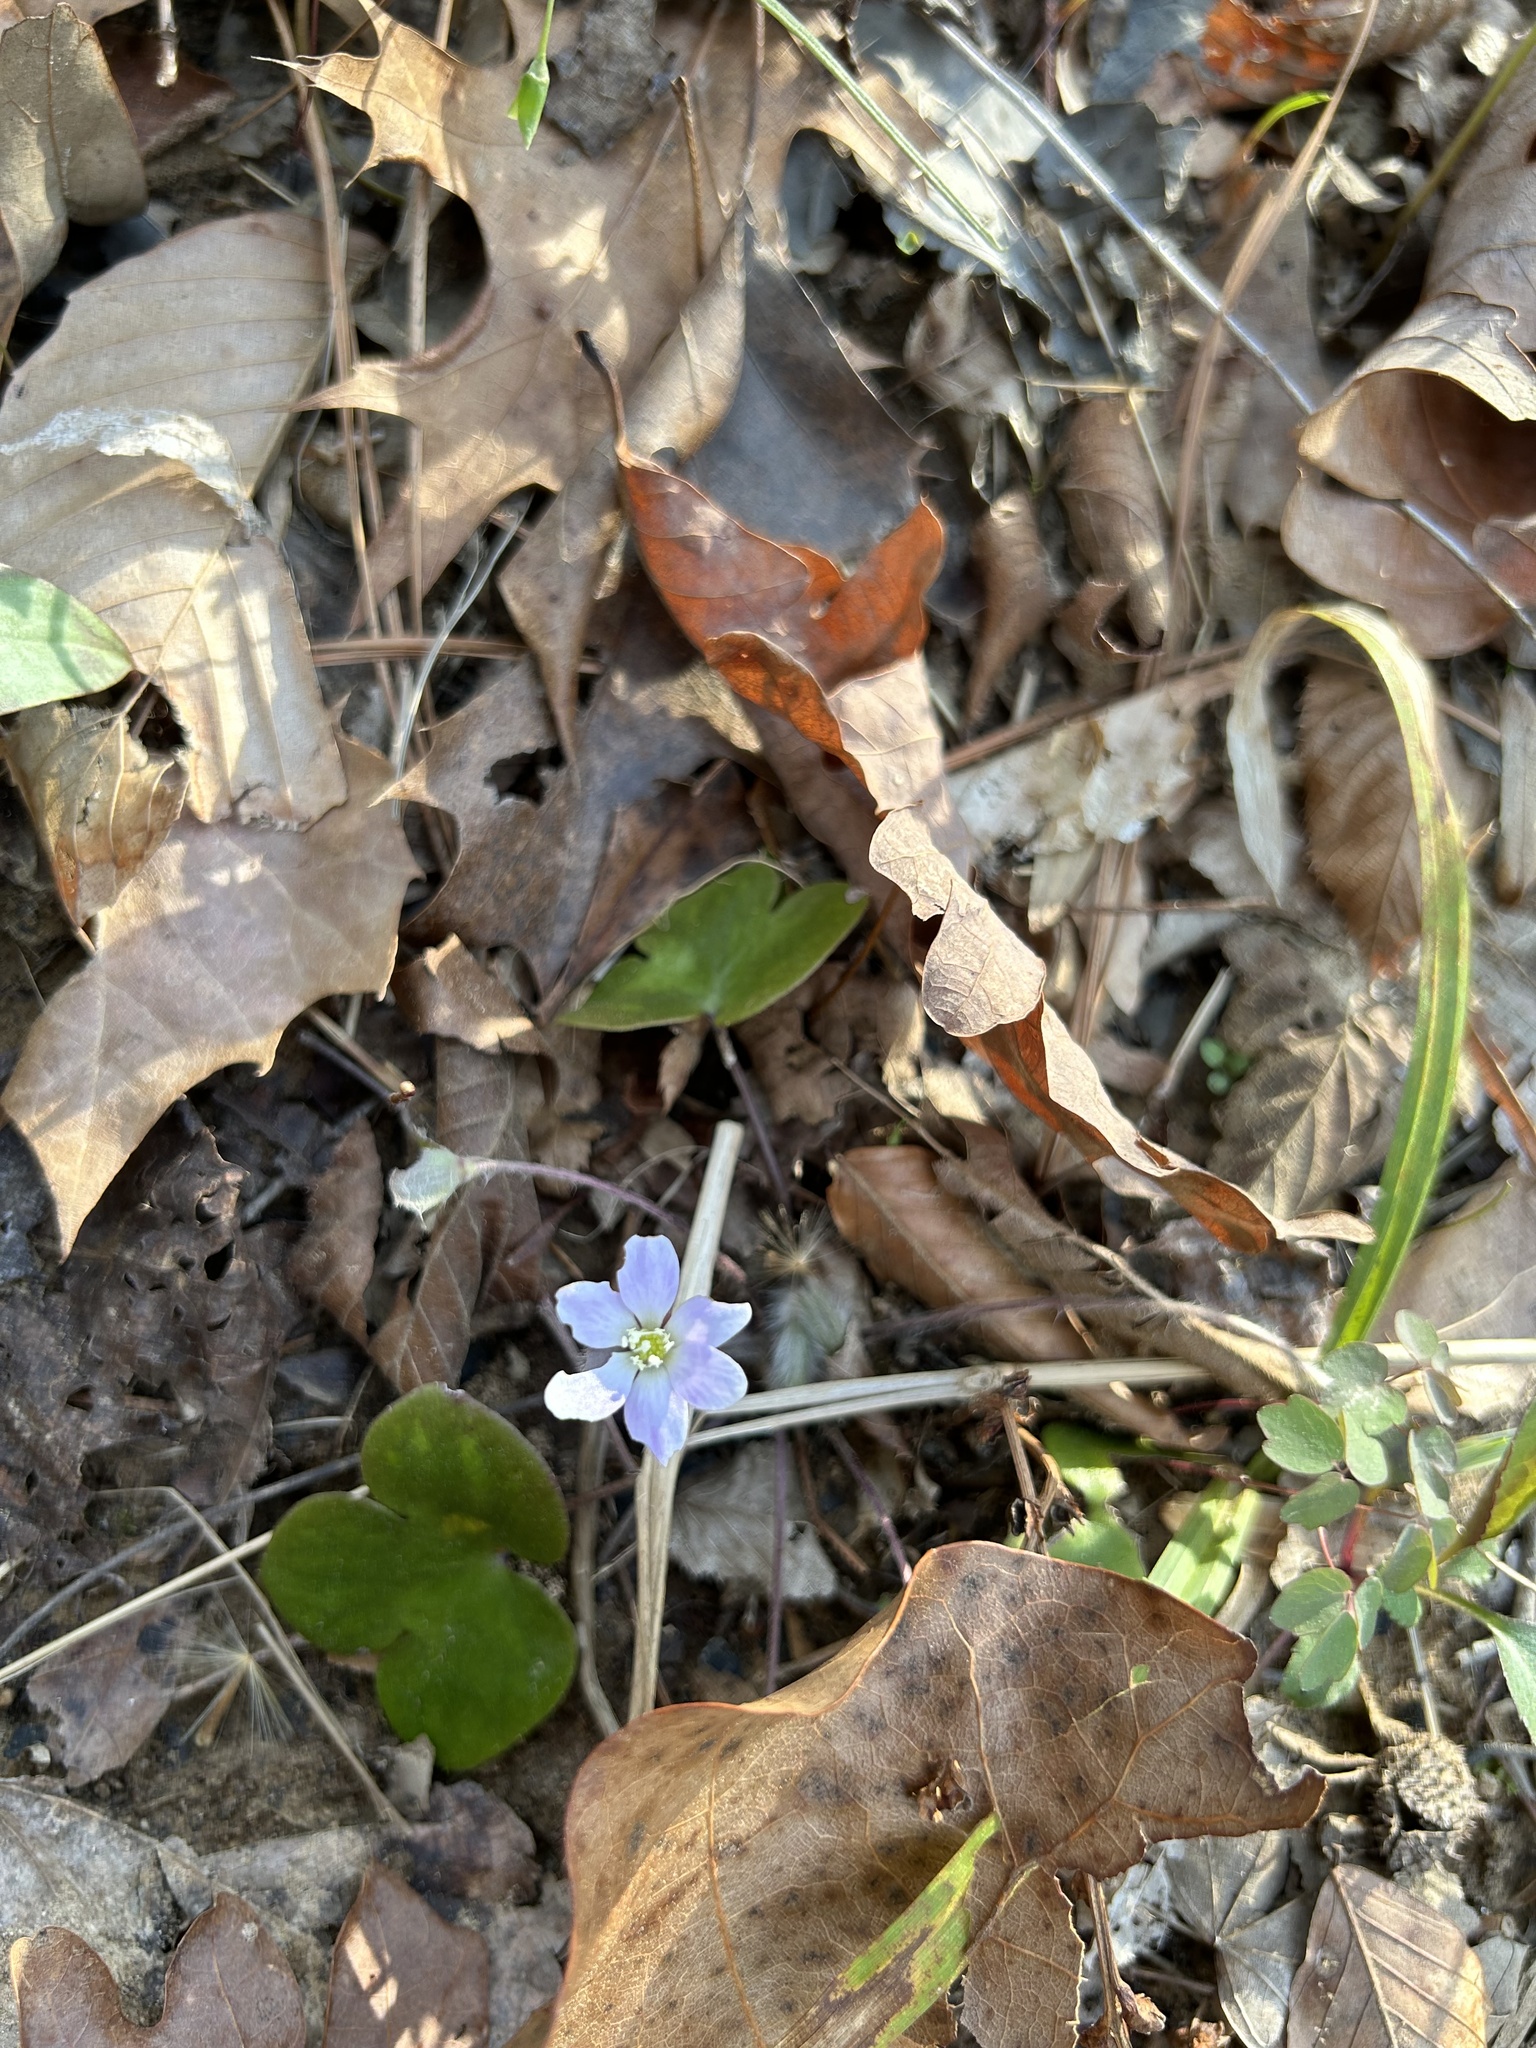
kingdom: Plantae
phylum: Tracheophyta
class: Magnoliopsida
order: Ranunculales
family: Ranunculaceae
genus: Hepatica
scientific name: Hepatica americana
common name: American hepatica
